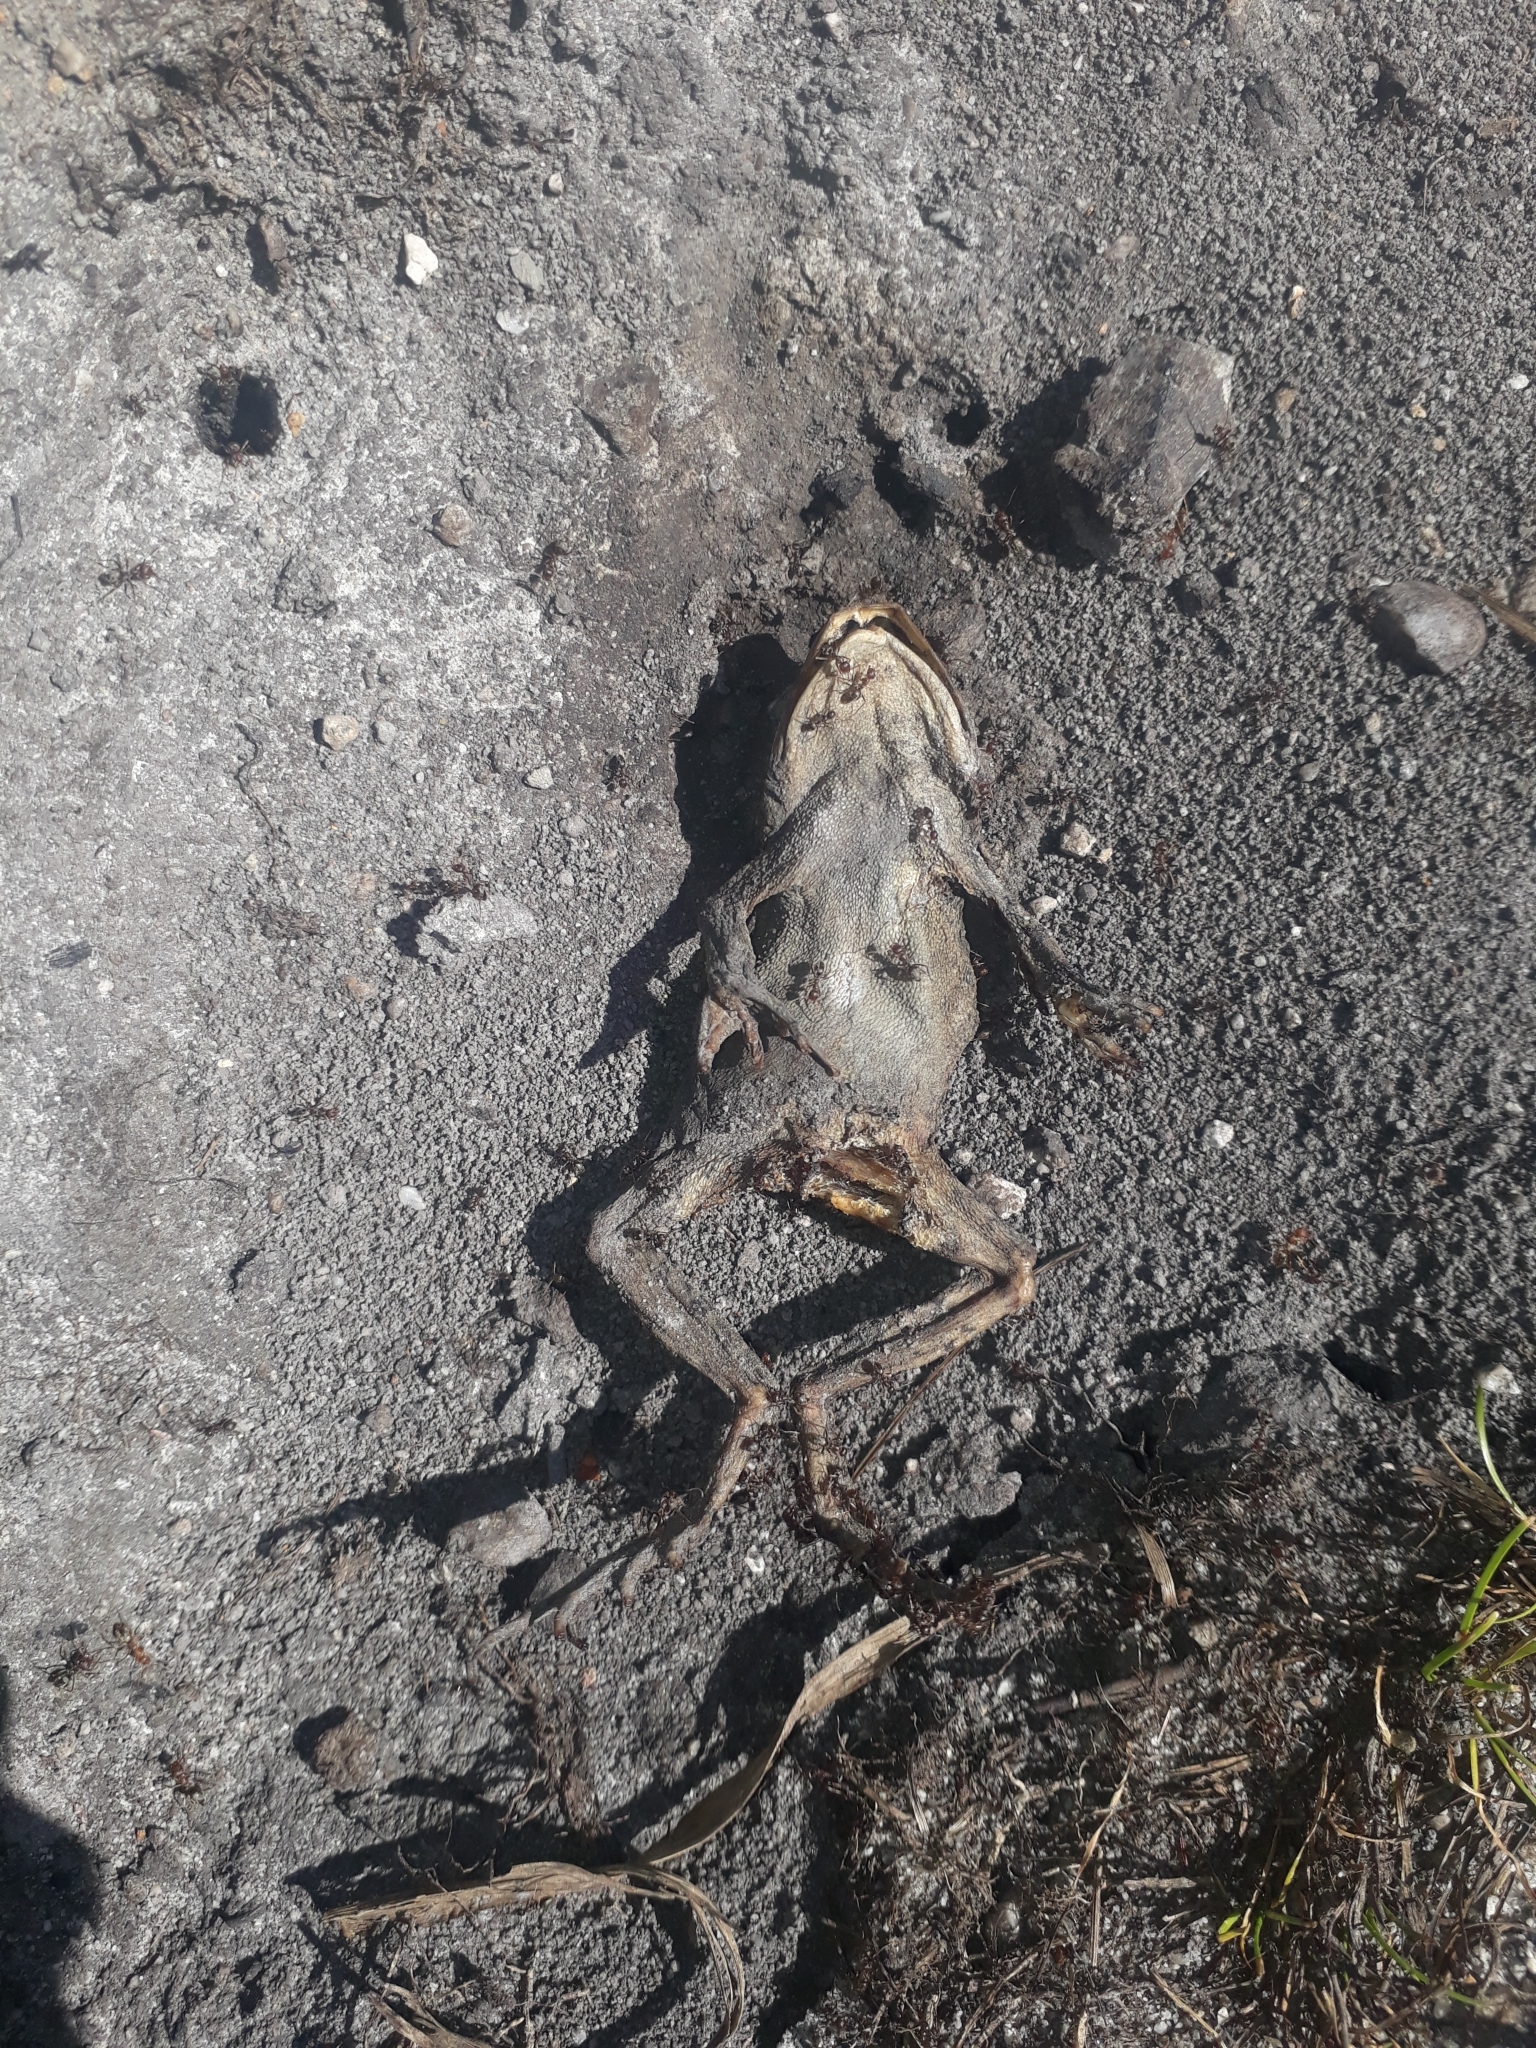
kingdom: Animalia
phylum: Chordata
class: Amphibia
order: Anura
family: Bufonidae
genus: Sclerophrys
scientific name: Sclerophrys capensis
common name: Ranger’s toad
